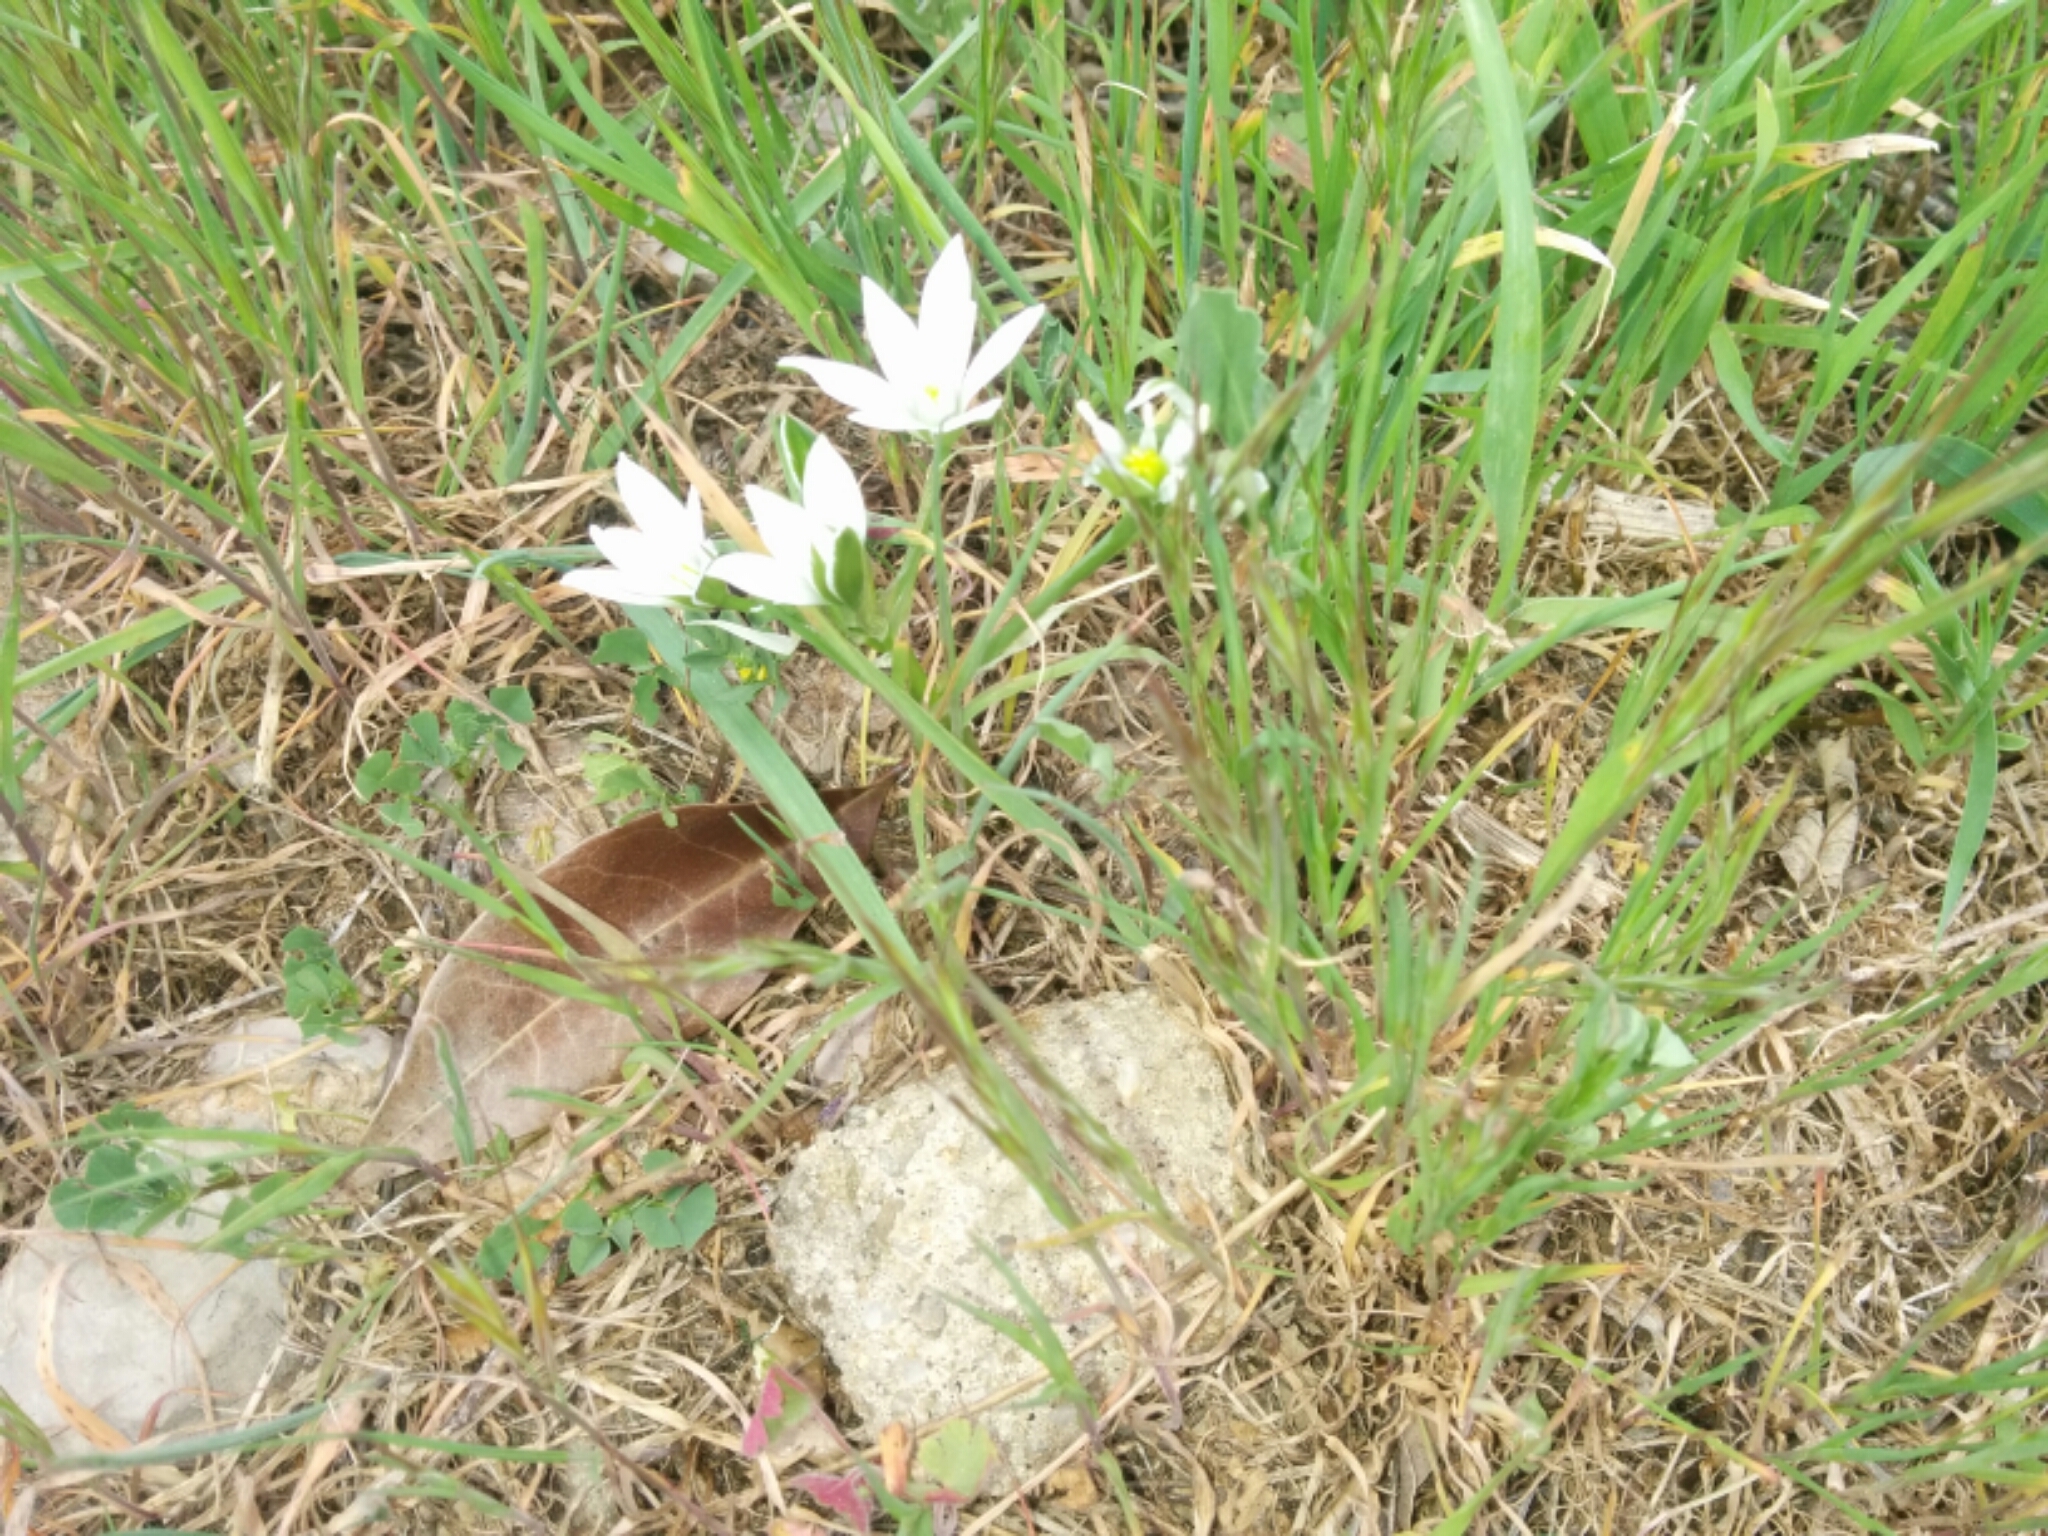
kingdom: Plantae
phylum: Tracheophyta
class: Liliopsida
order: Asparagales
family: Asparagaceae
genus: Ornithogalum
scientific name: Ornithogalum umbellatum
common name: Garden star-of-bethlehem
